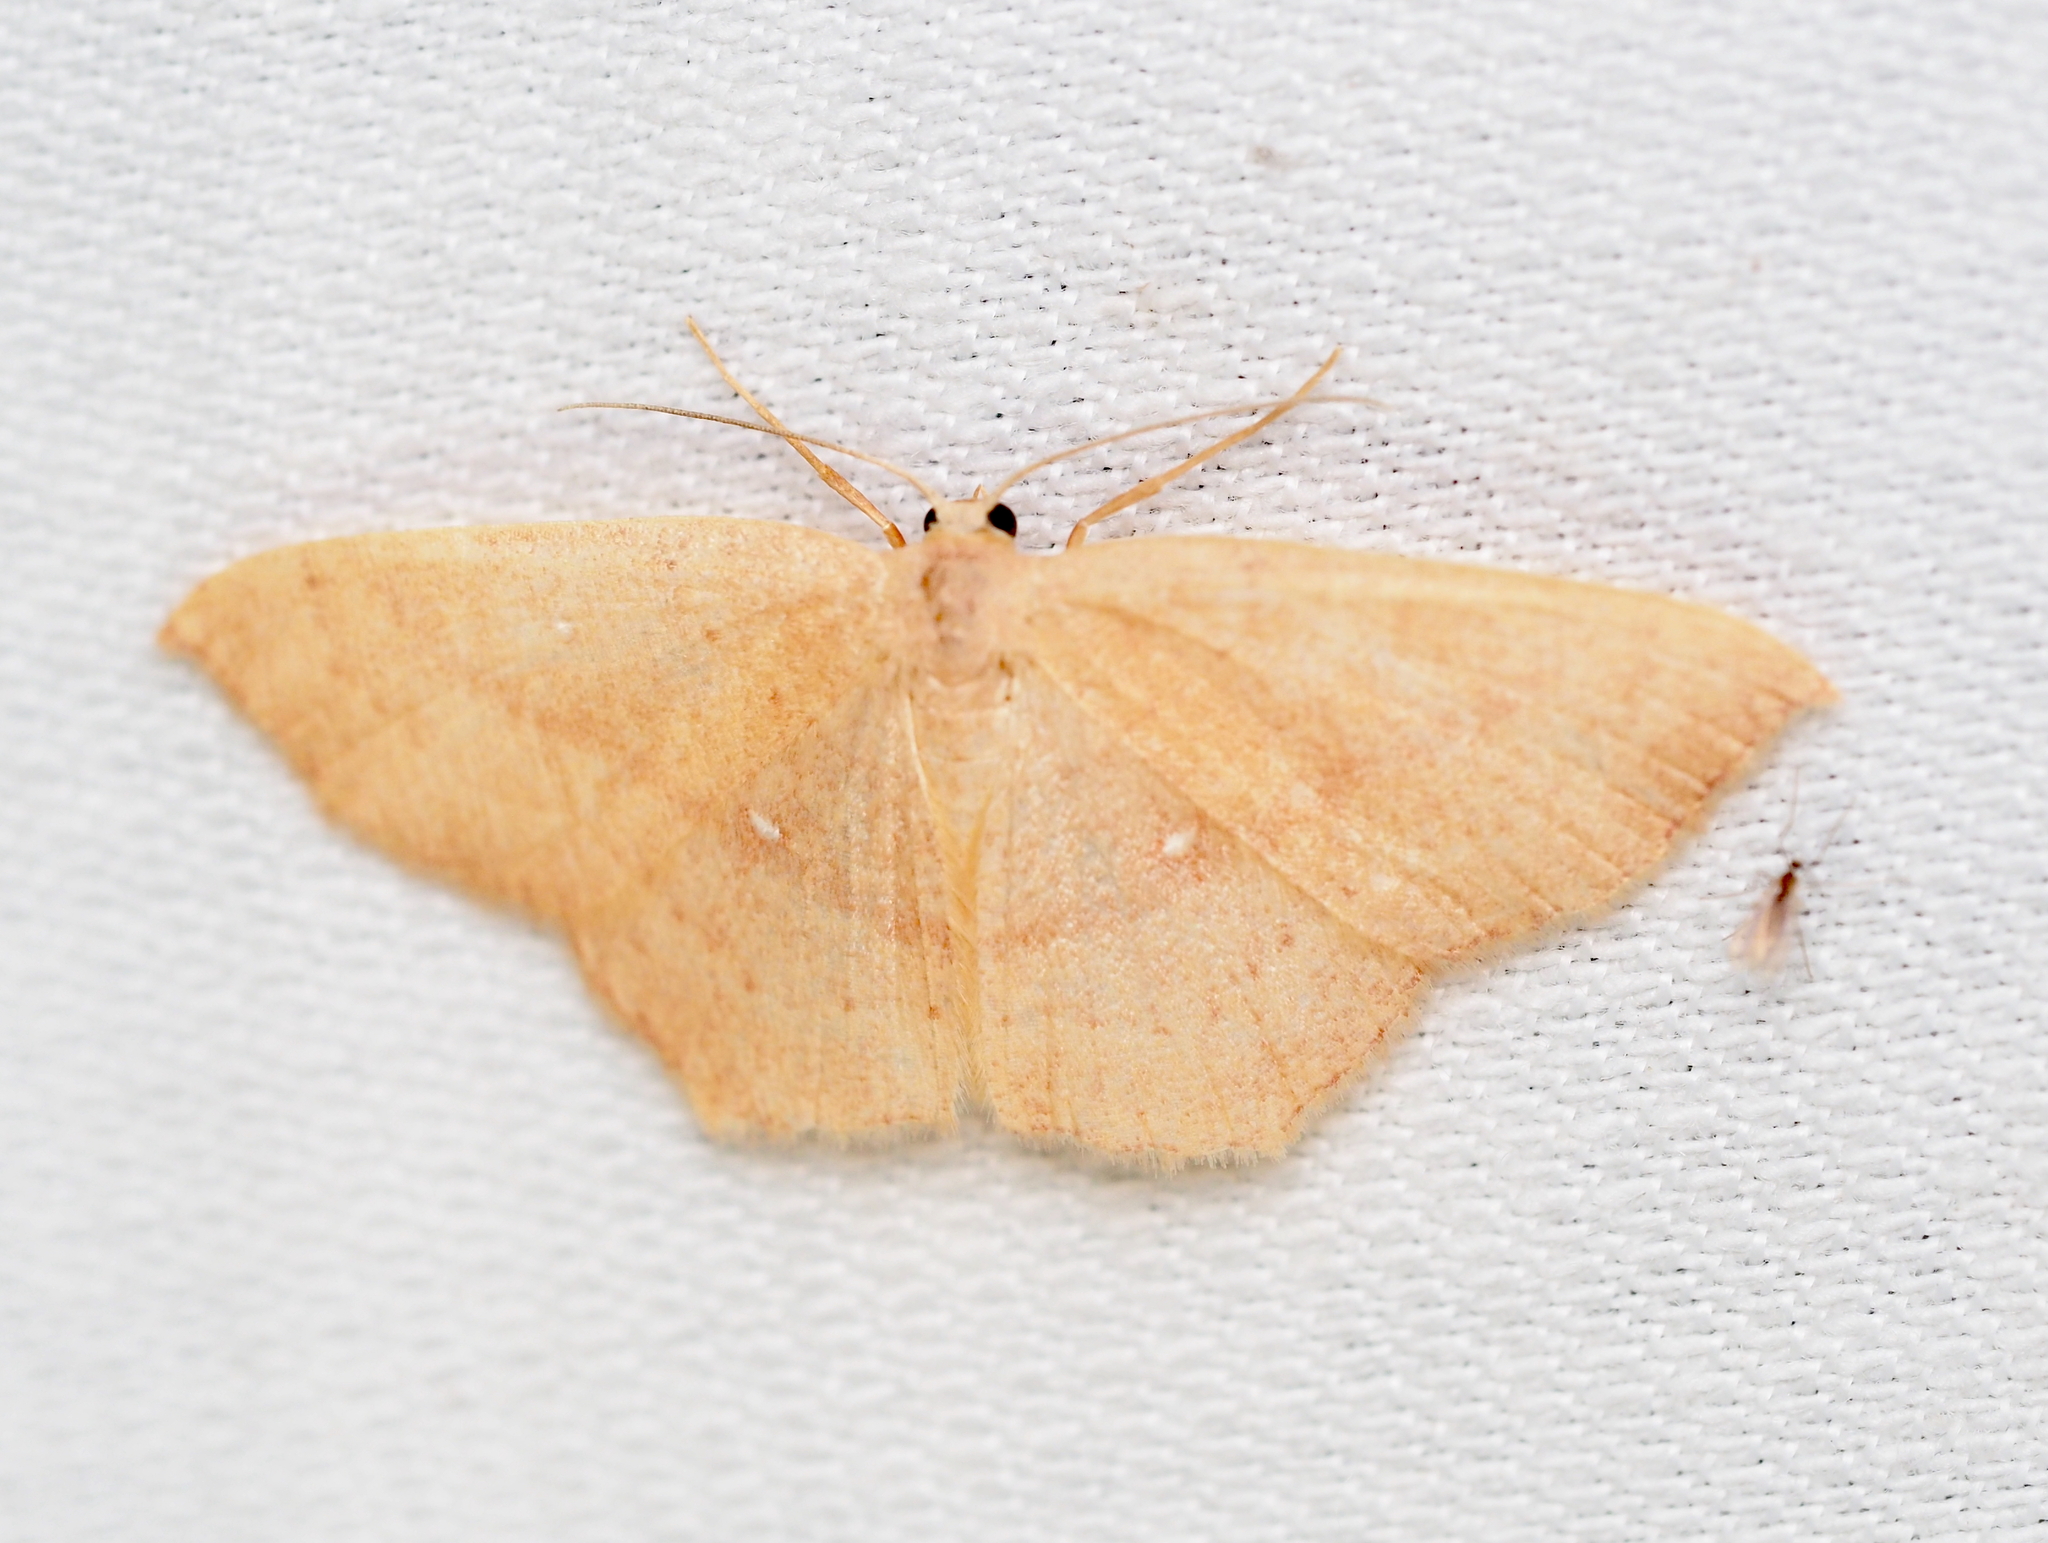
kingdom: Animalia
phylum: Arthropoda
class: Insecta
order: Lepidoptera
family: Geometridae
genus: Cyclophora
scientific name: Cyclophora linearia
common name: Clay triple-lines
